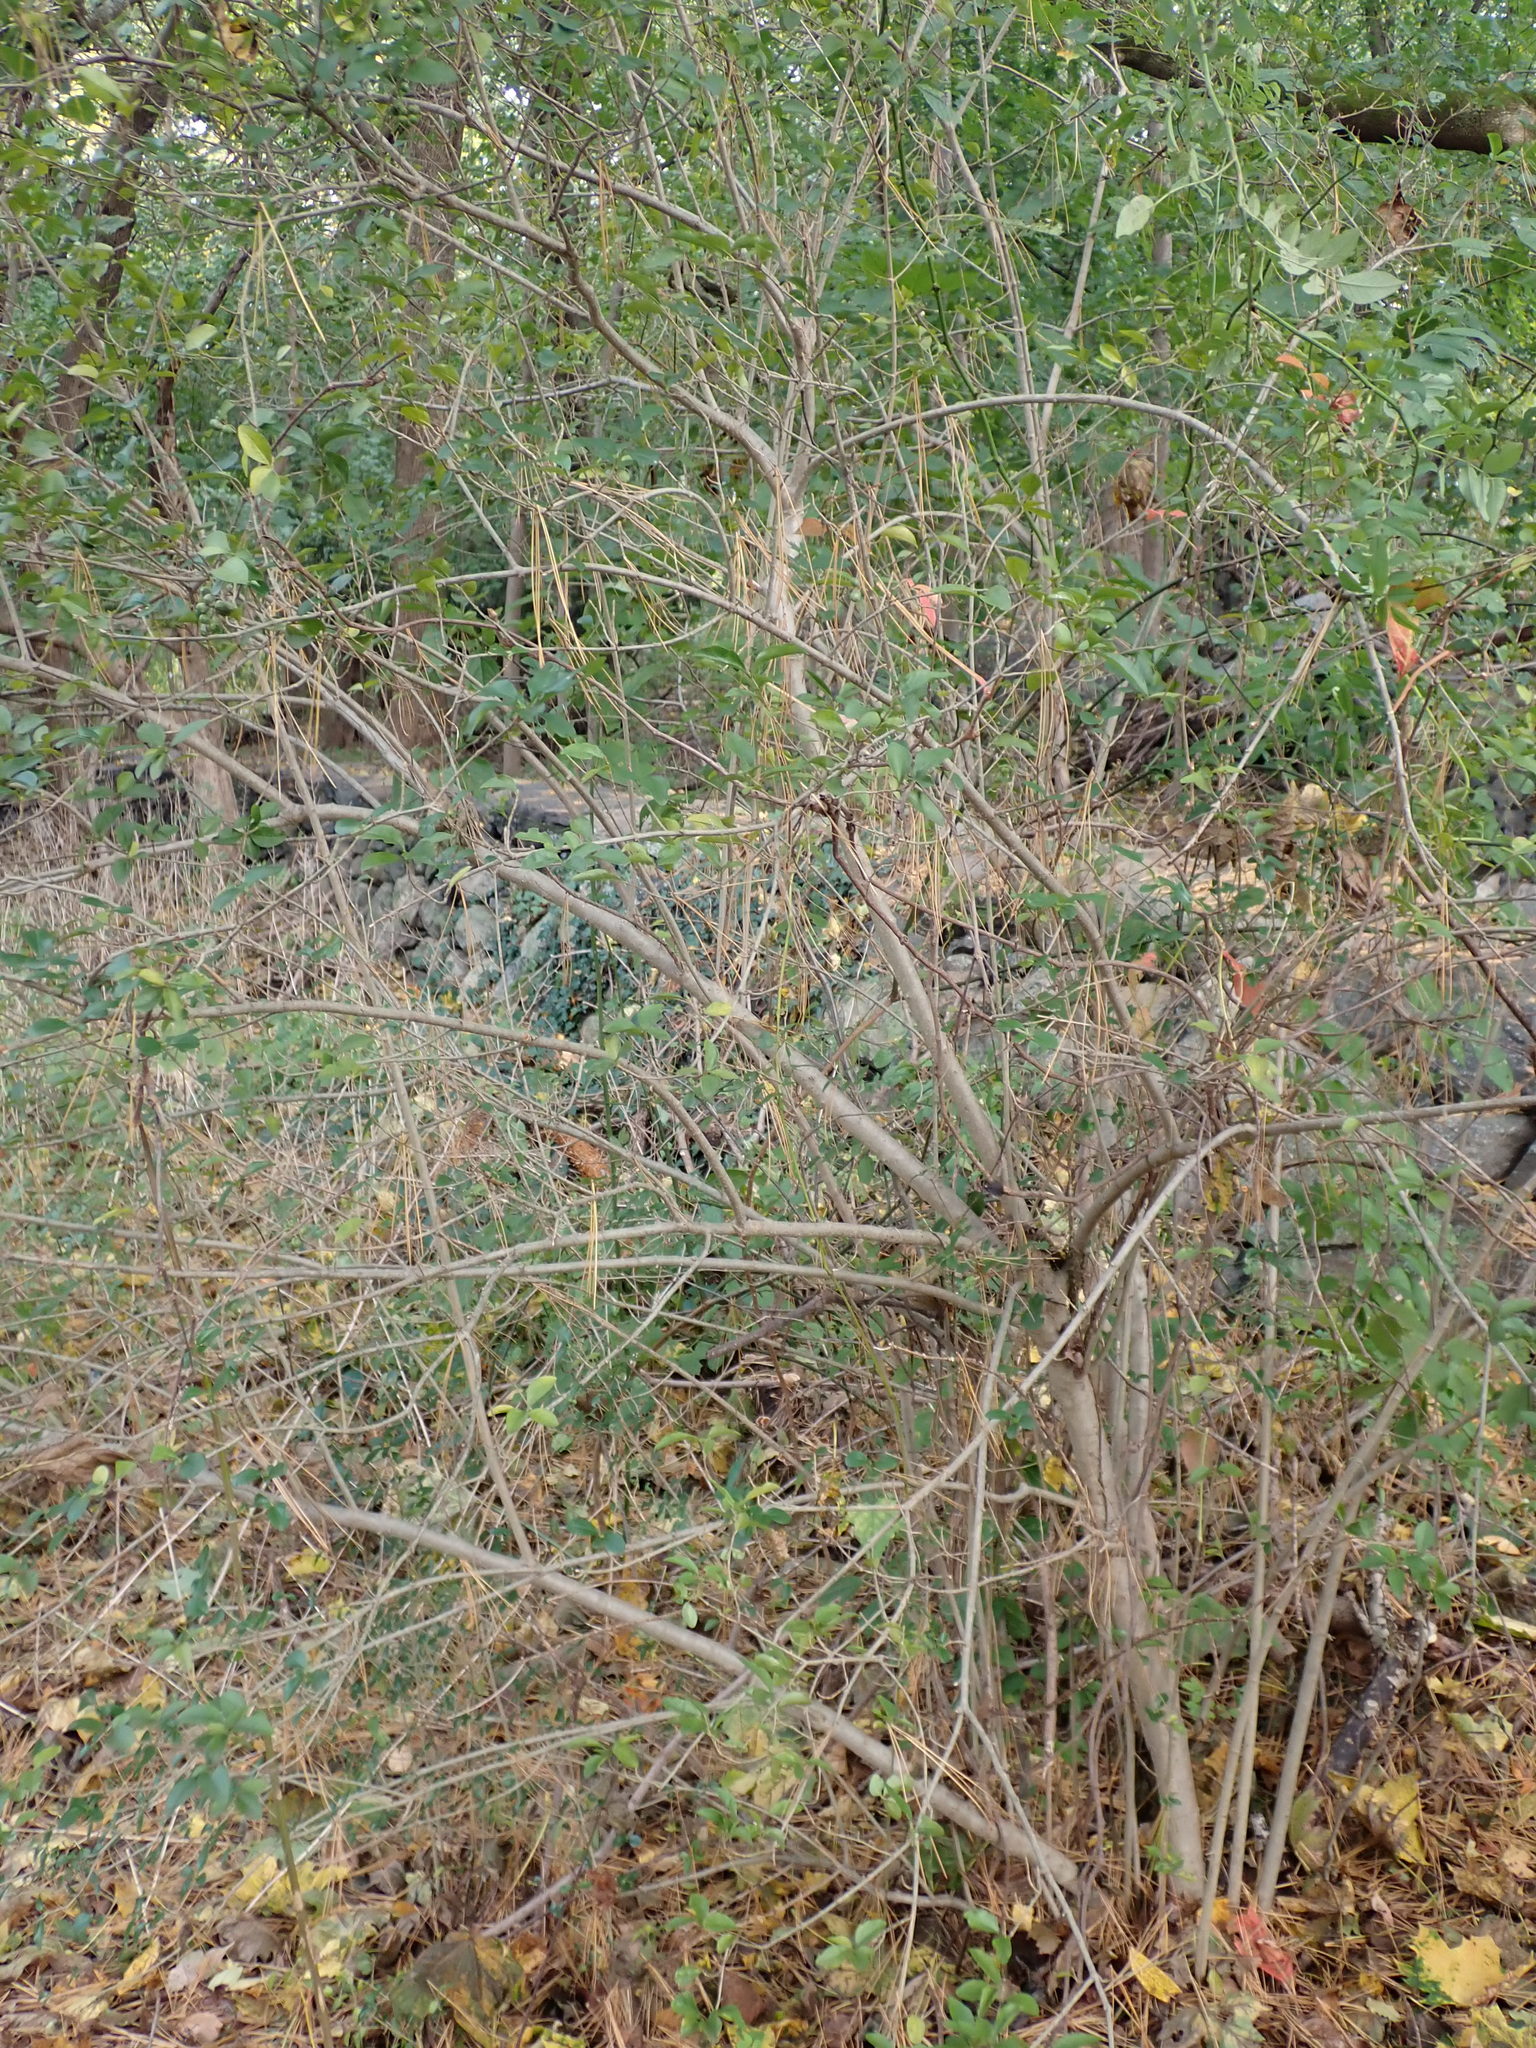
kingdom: Plantae
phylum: Tracheophyta
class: Magnoliopsida
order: Lamiales
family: Oleaceae
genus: Ligustrum
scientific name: Ligustrum vulgare
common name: Wild privet
